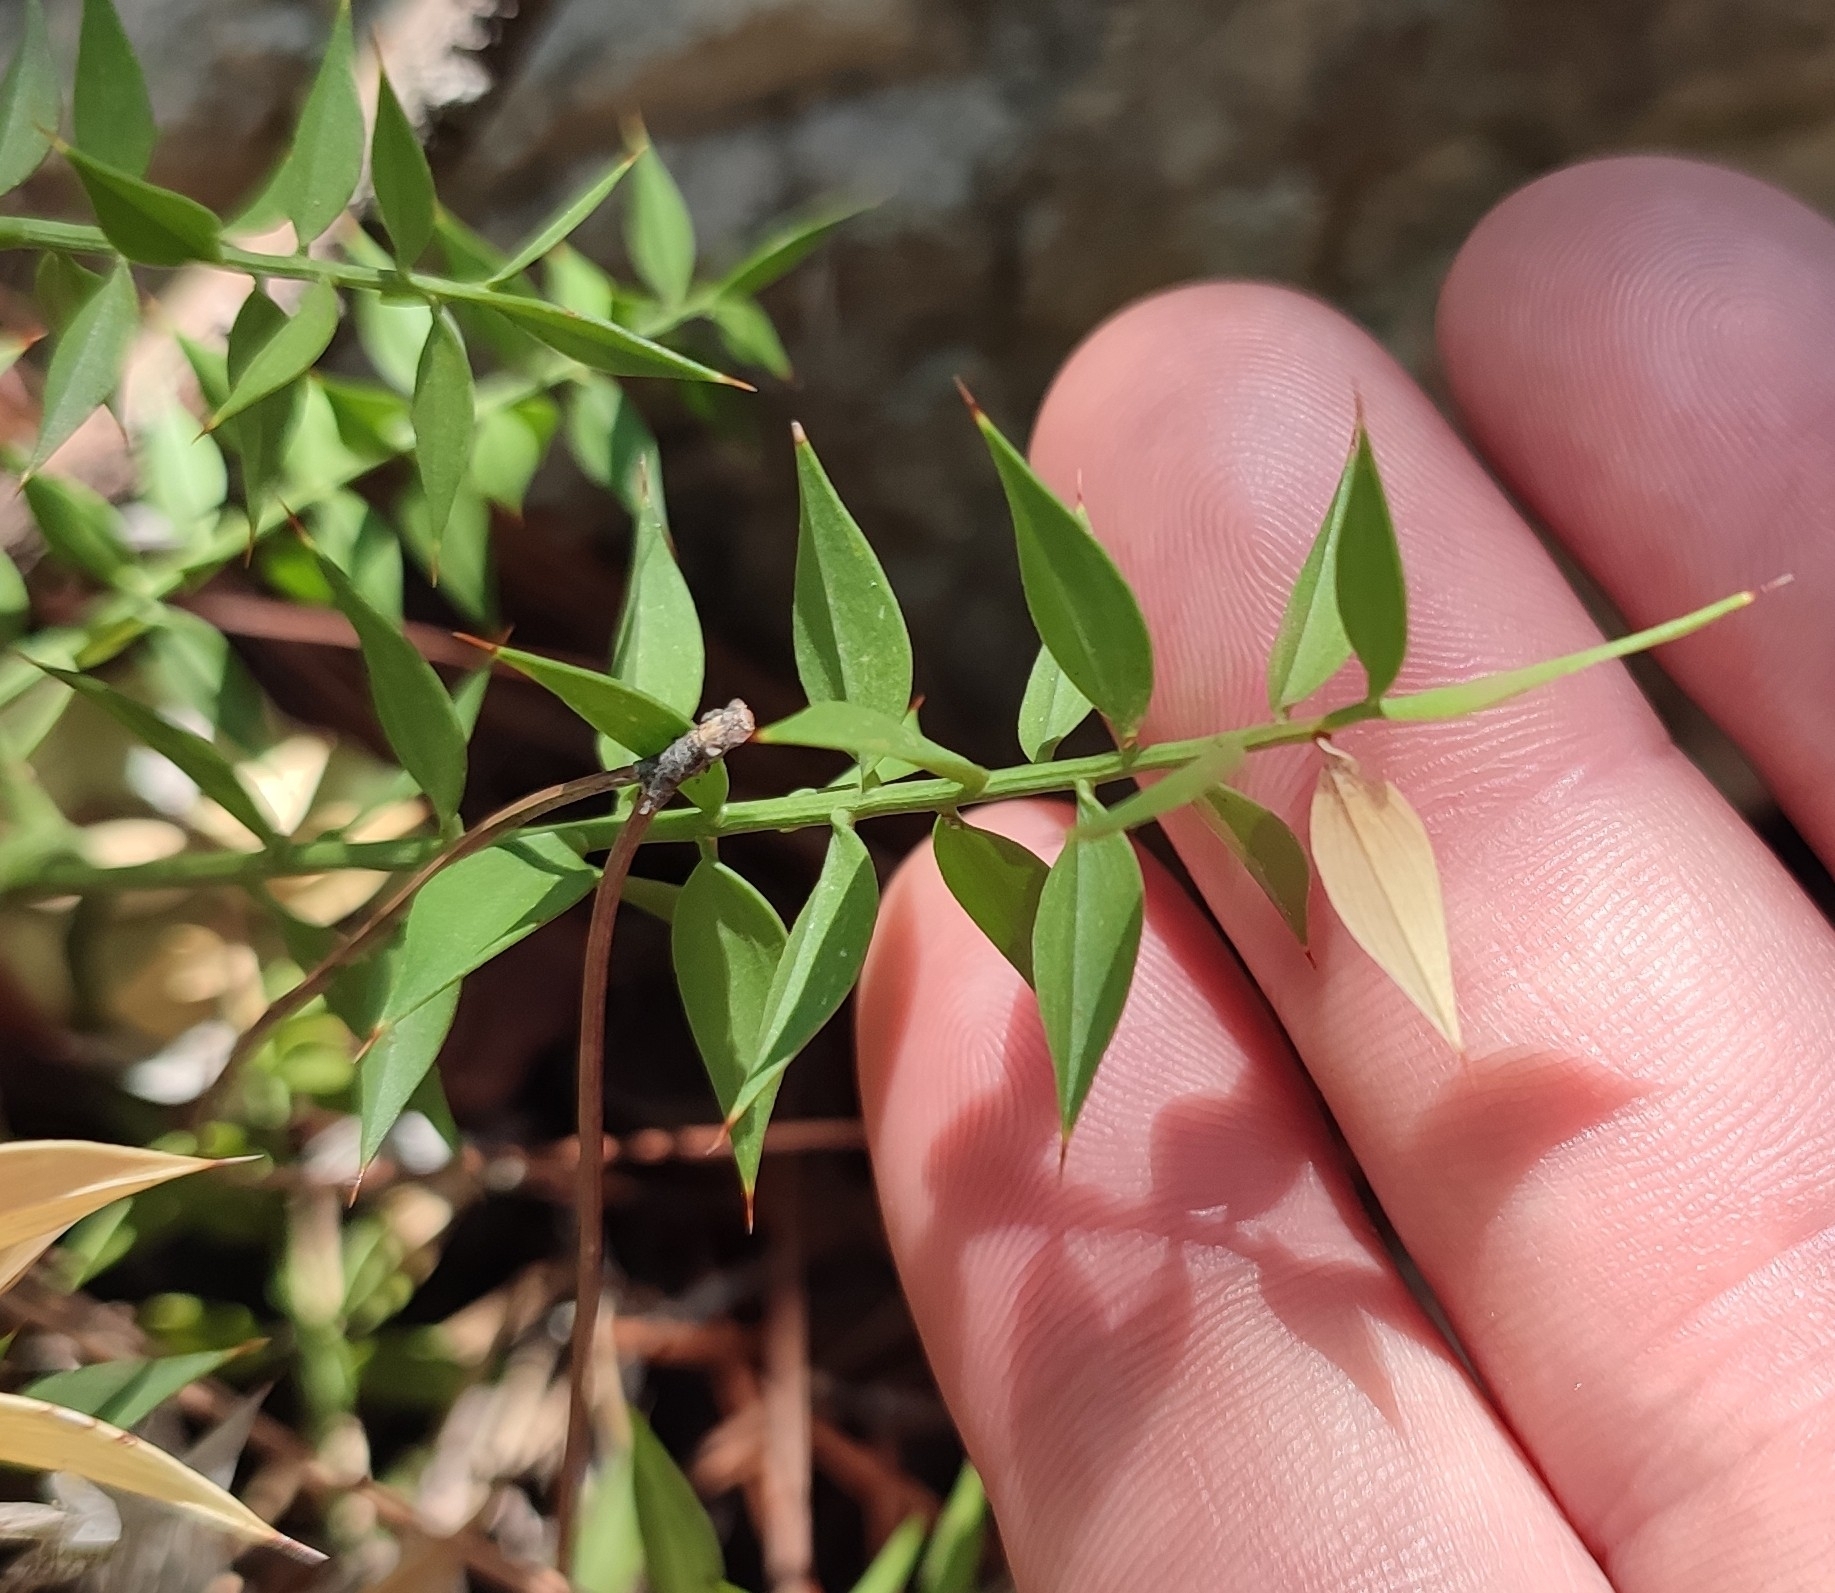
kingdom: Plantae
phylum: Tracheophyta
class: Liliopsida
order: Asparagales
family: Asparagaceae
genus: Ruscus
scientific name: Ruscus aculeatus
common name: Butcher's-broom
